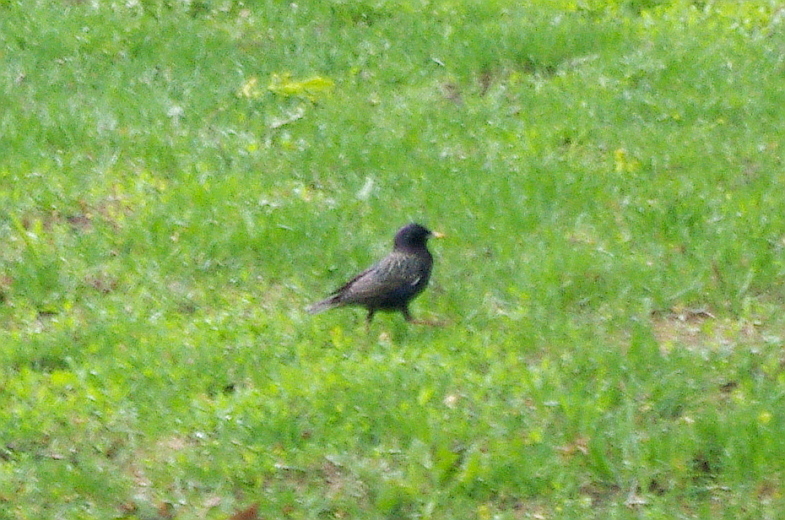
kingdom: Animalia
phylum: Chordata
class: Aves
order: Passeriformes
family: Sturnidae
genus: Sturnus
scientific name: Sturnus vulgaris
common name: Common starling
